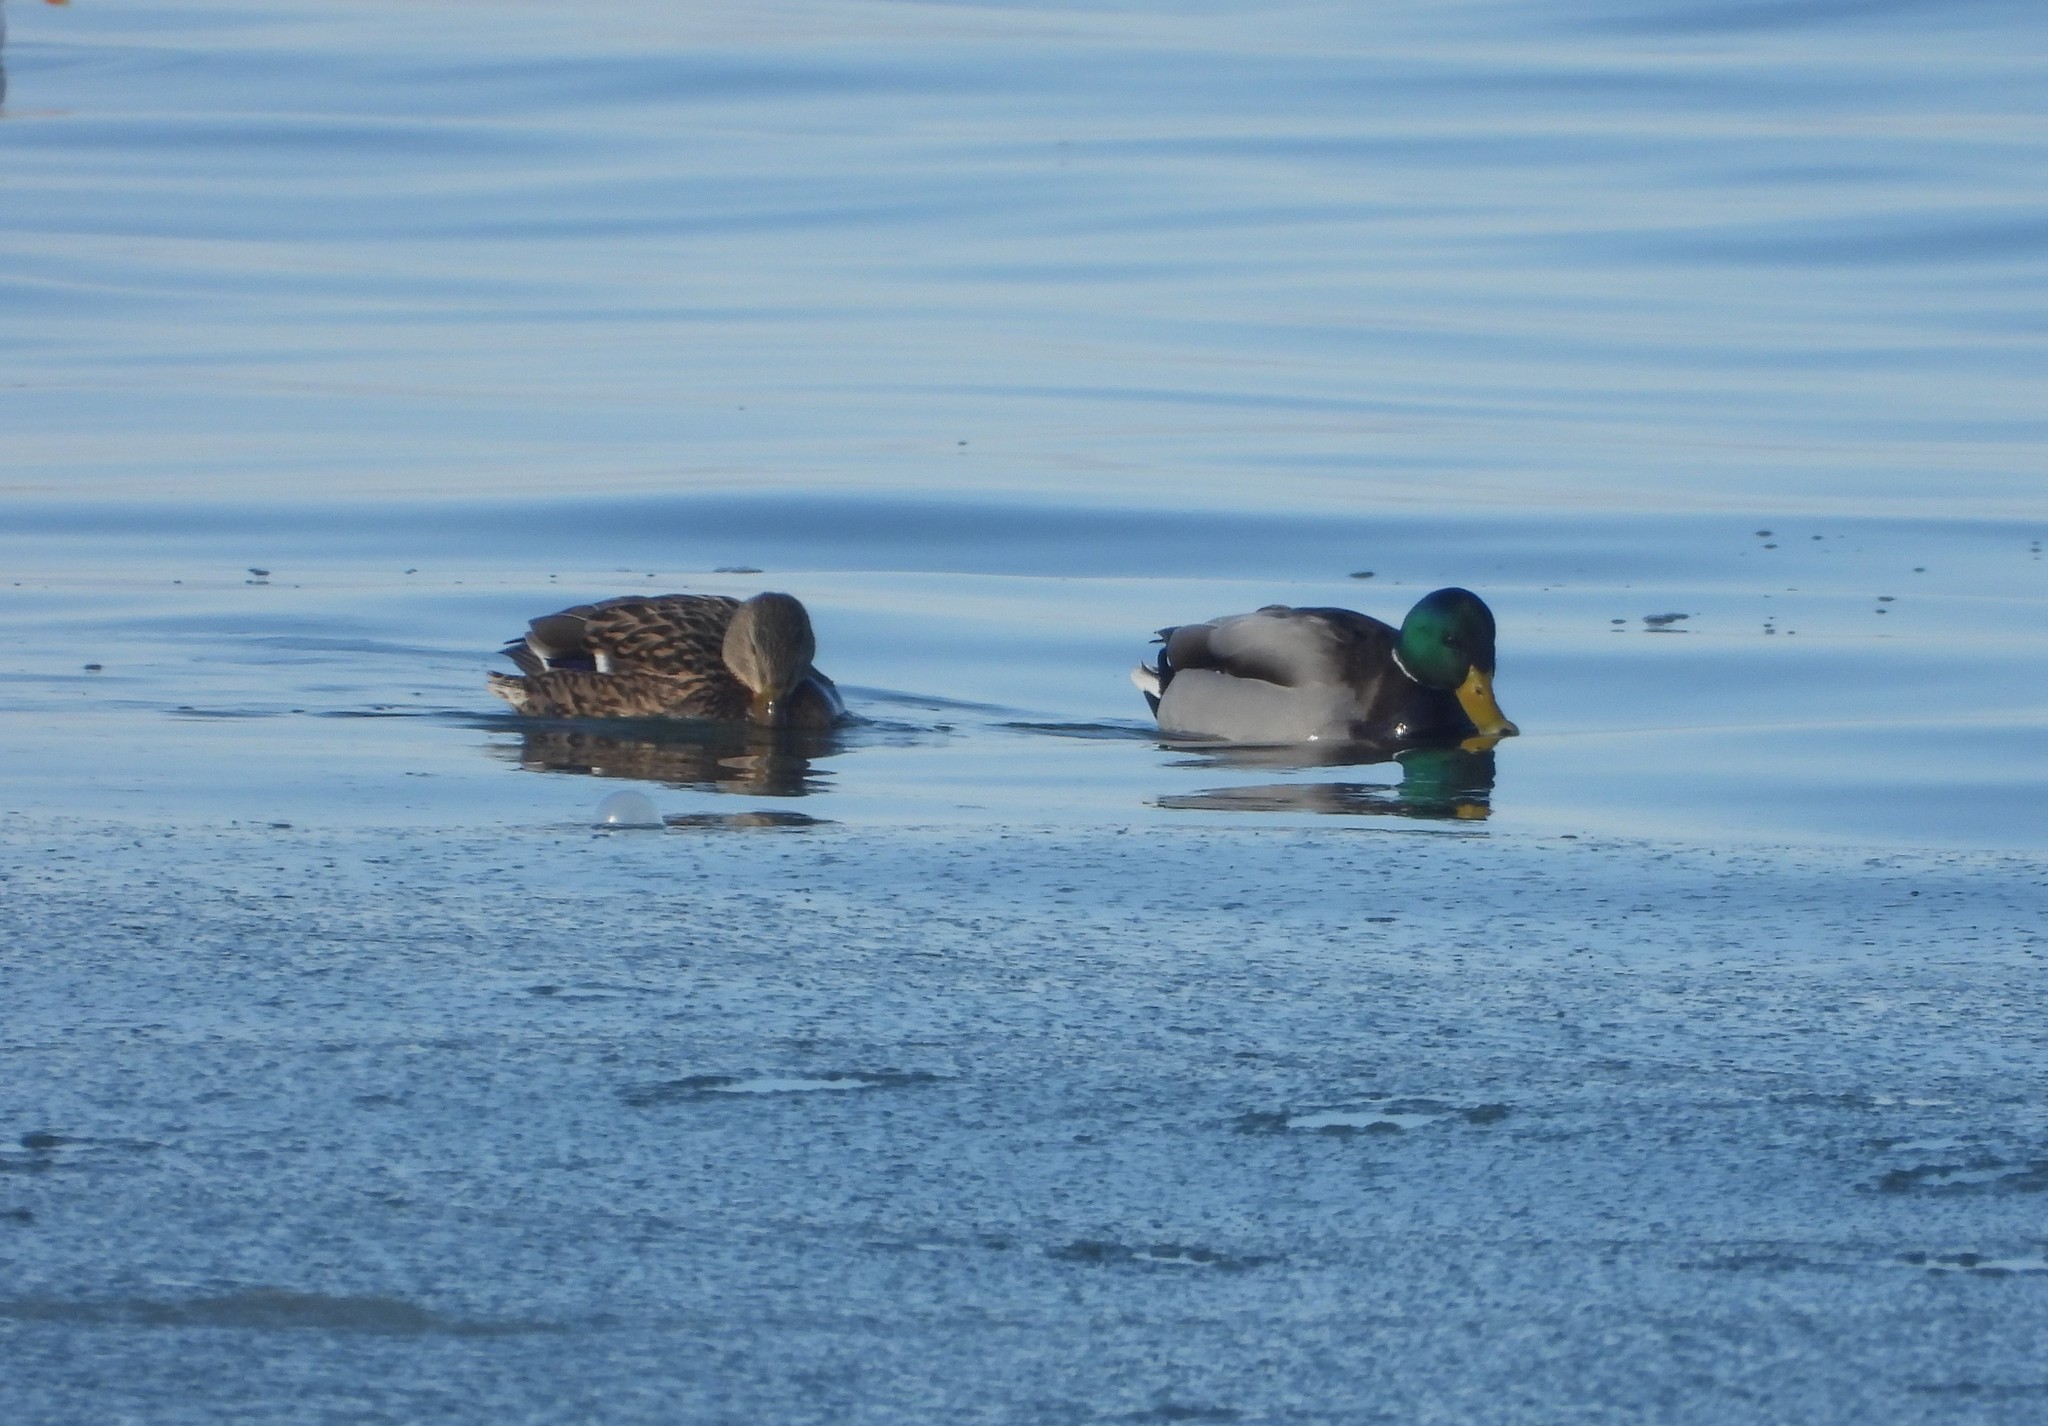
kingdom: Animalia
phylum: Chordata
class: Aves
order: Anseriformes
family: Anatidae
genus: Anas
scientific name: Anas platyrhynchos
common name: Mallard
